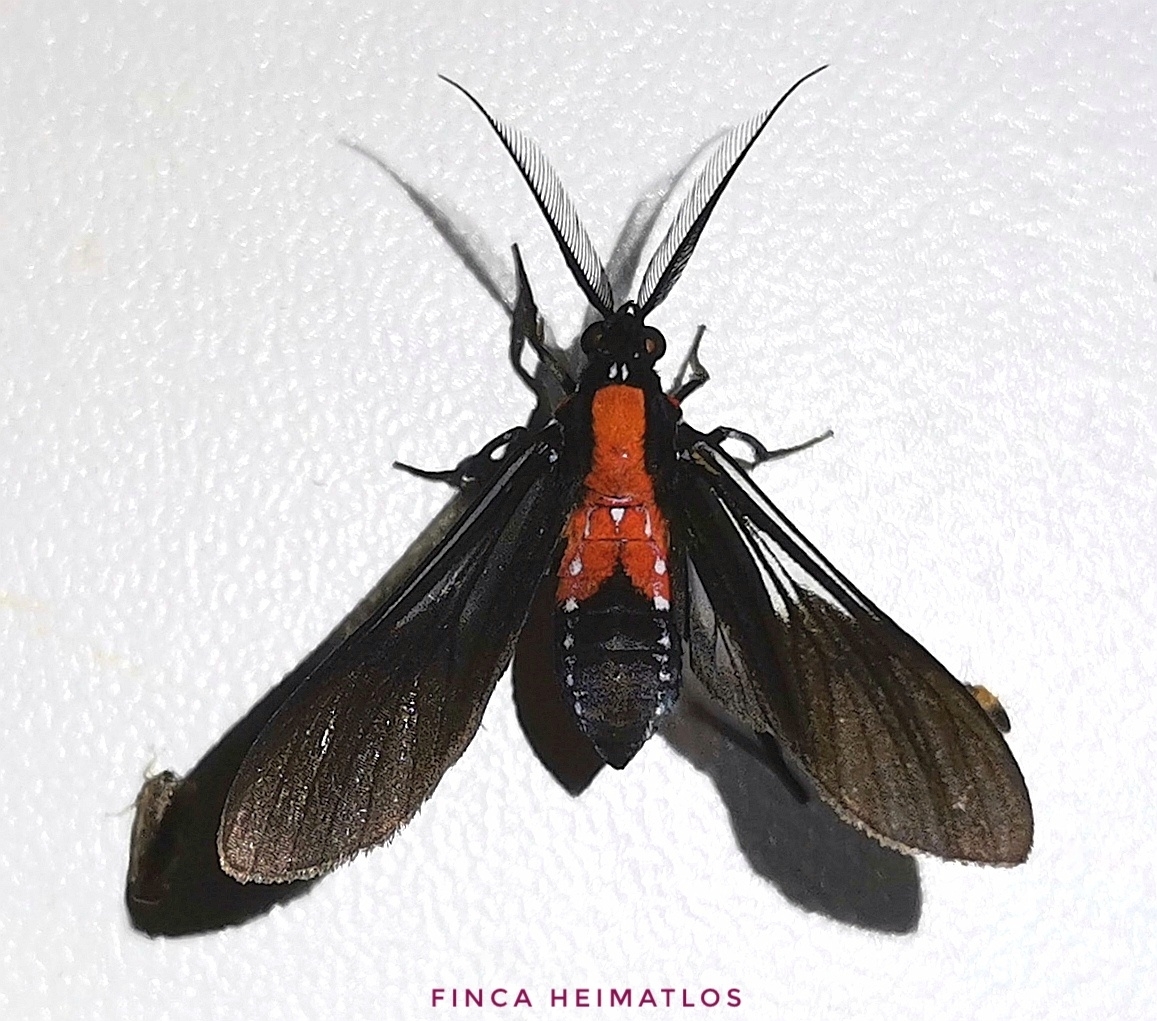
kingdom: Animalia
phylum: Arthropoda
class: Insecta
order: Lepidoptera
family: Erebidae
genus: Saurita
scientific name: Saurita vindonissa
